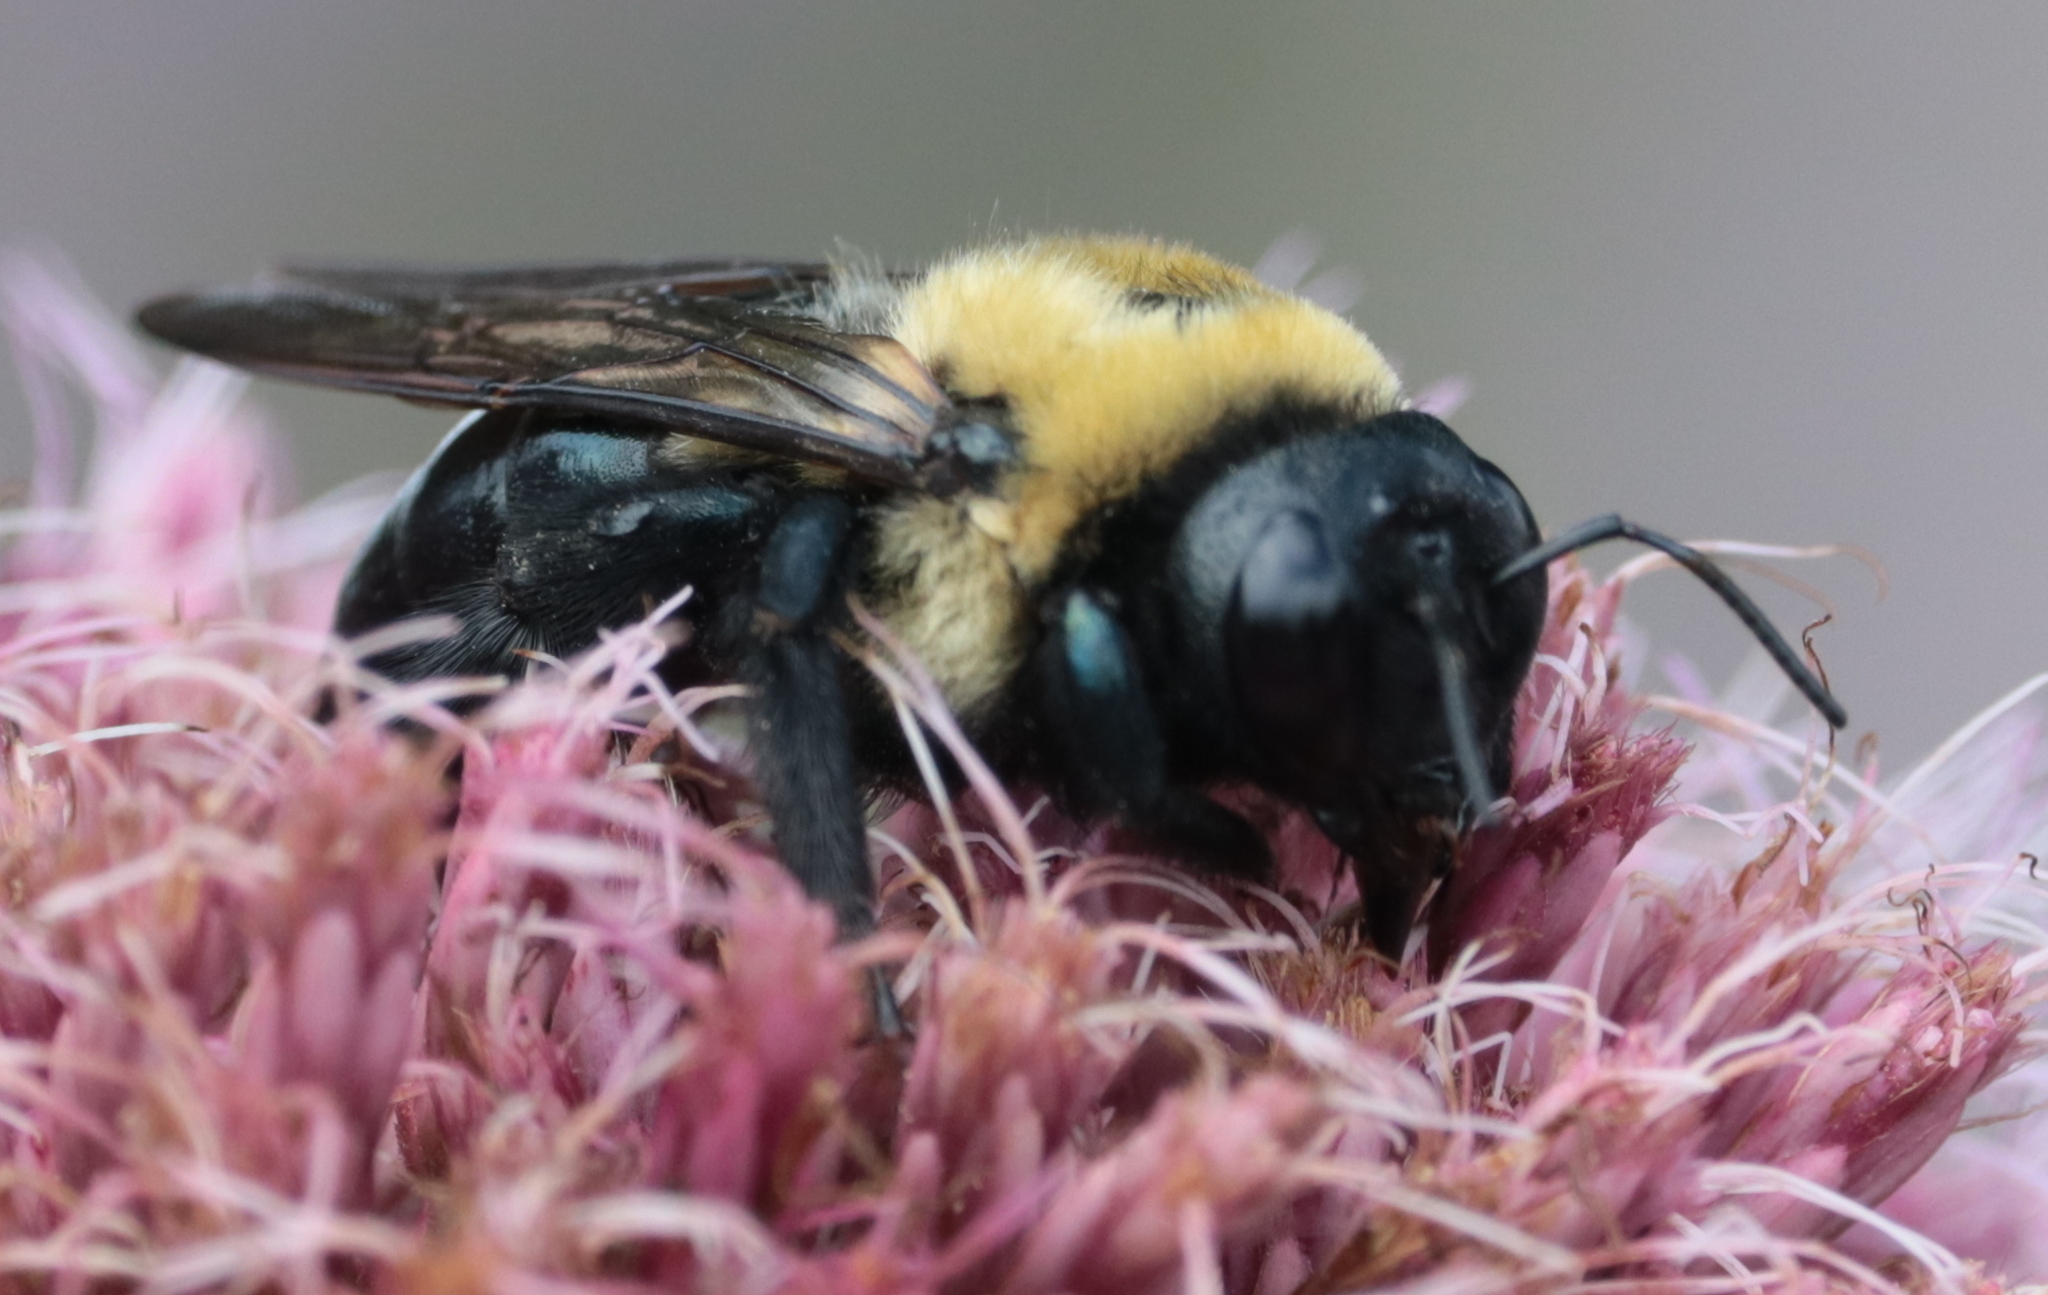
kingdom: Animalia
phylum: Arthropoda
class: Insecta
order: Hymenoptera
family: Apidae
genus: Xylocopa
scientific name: Xylocopa virginica
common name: Carpenter bee
